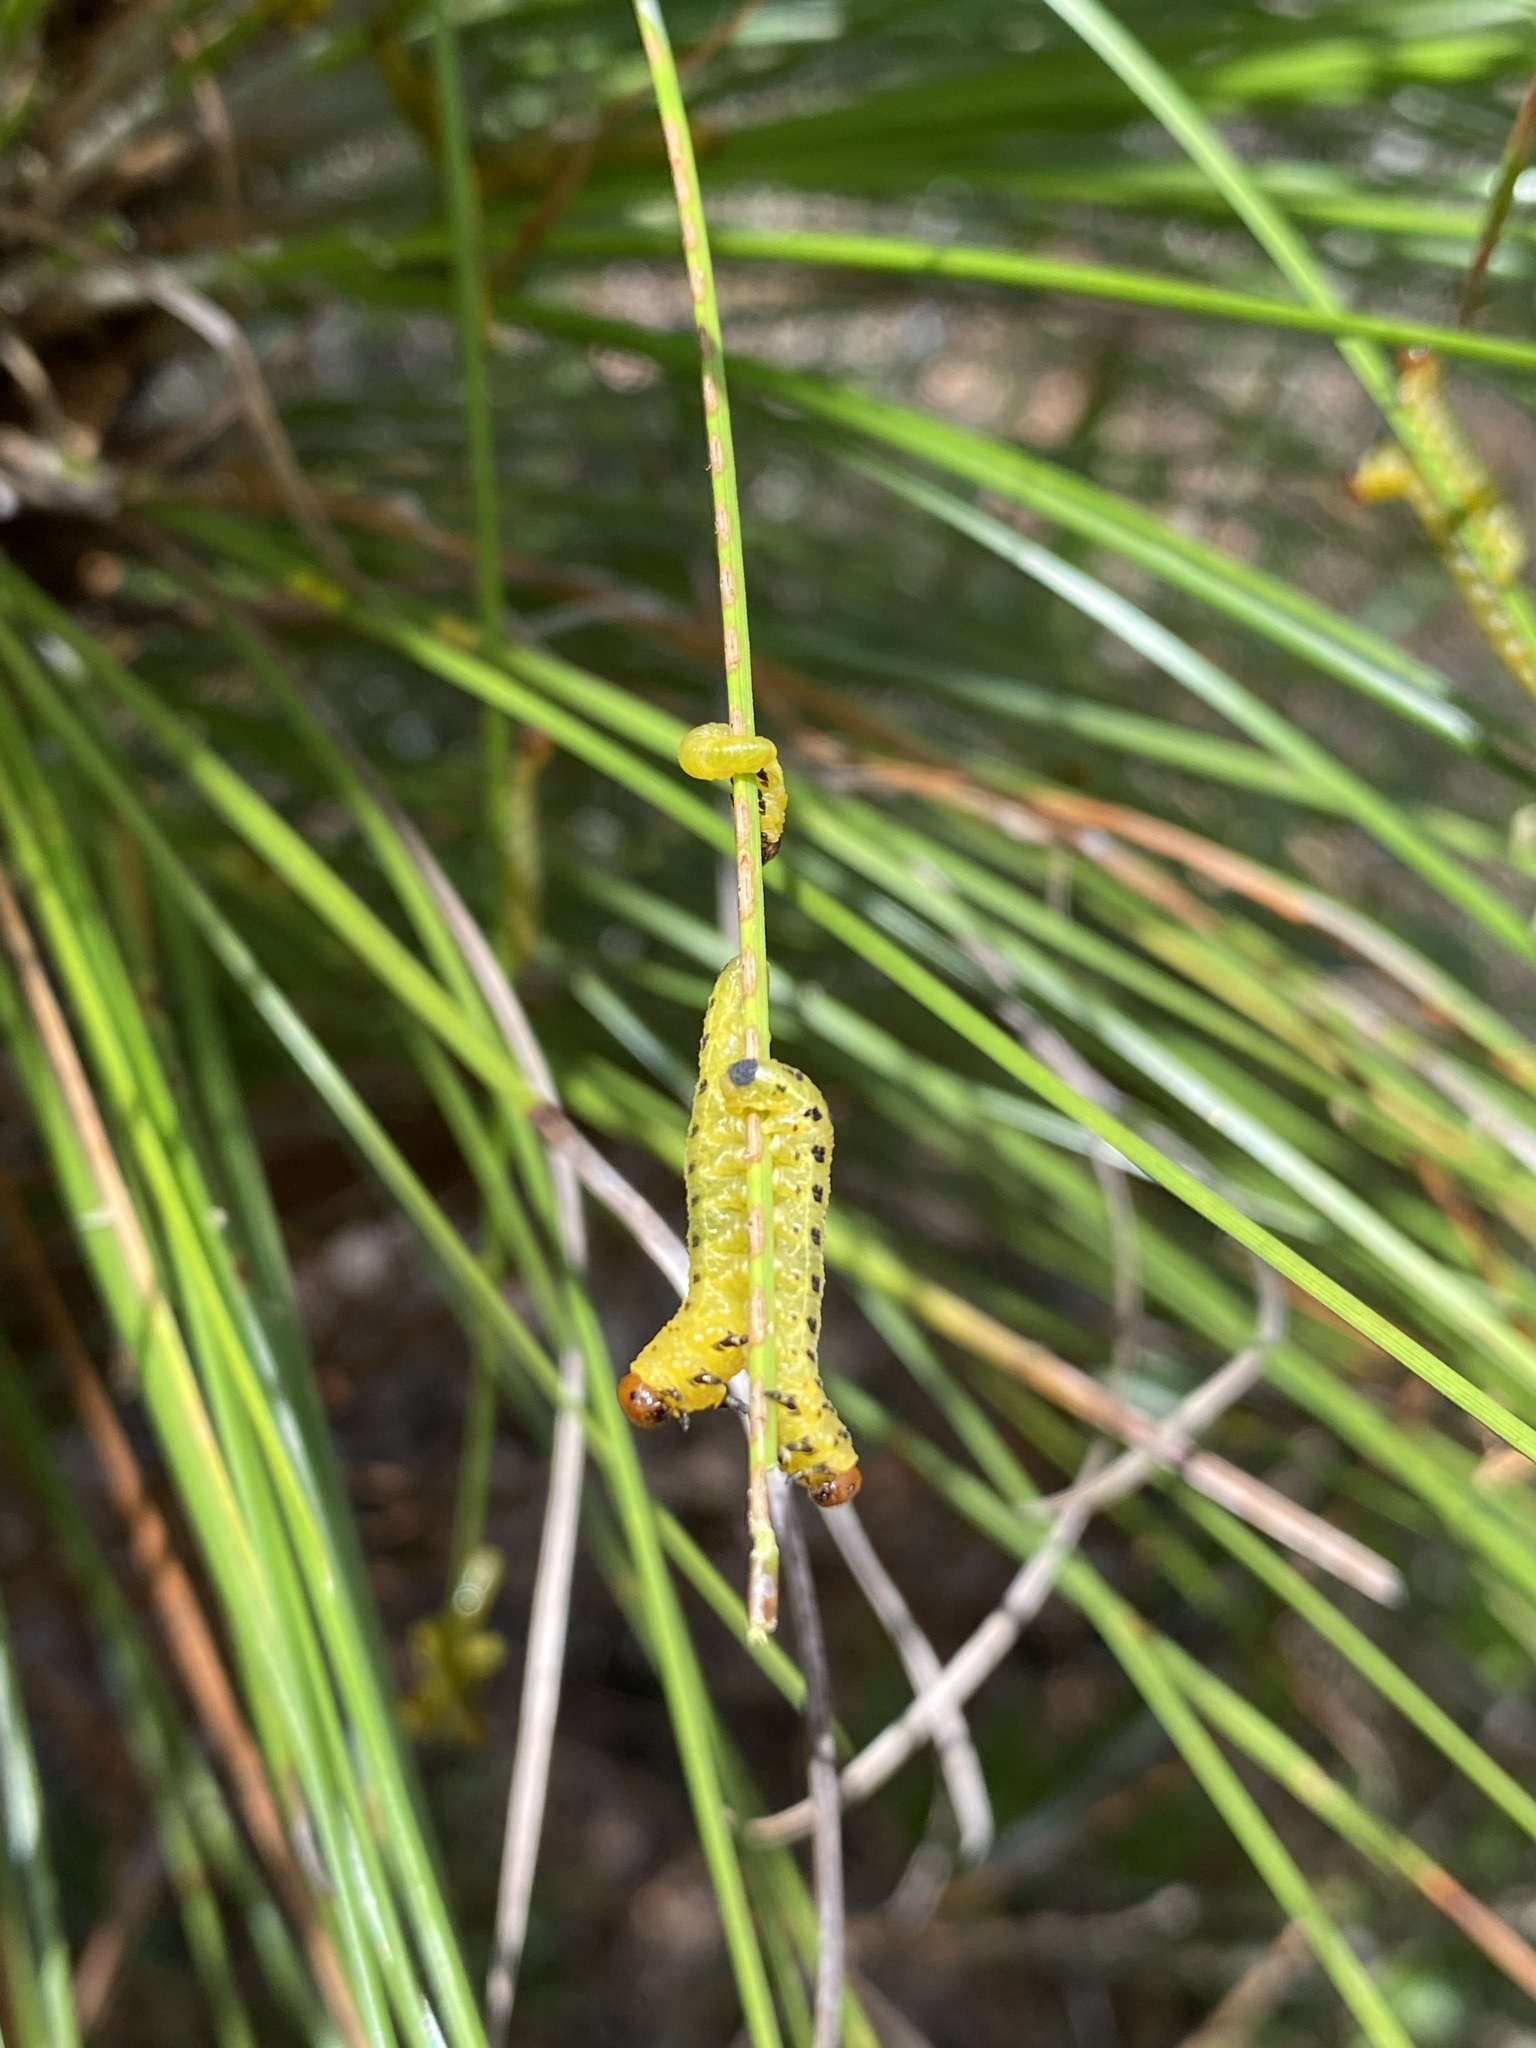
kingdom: Animalia
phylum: Arthropoda
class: Insecta
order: Hymenoptera
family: Diprionidae
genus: Neodiprion
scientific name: Neodiprion lecontei
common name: Redheaded pine sawfly
